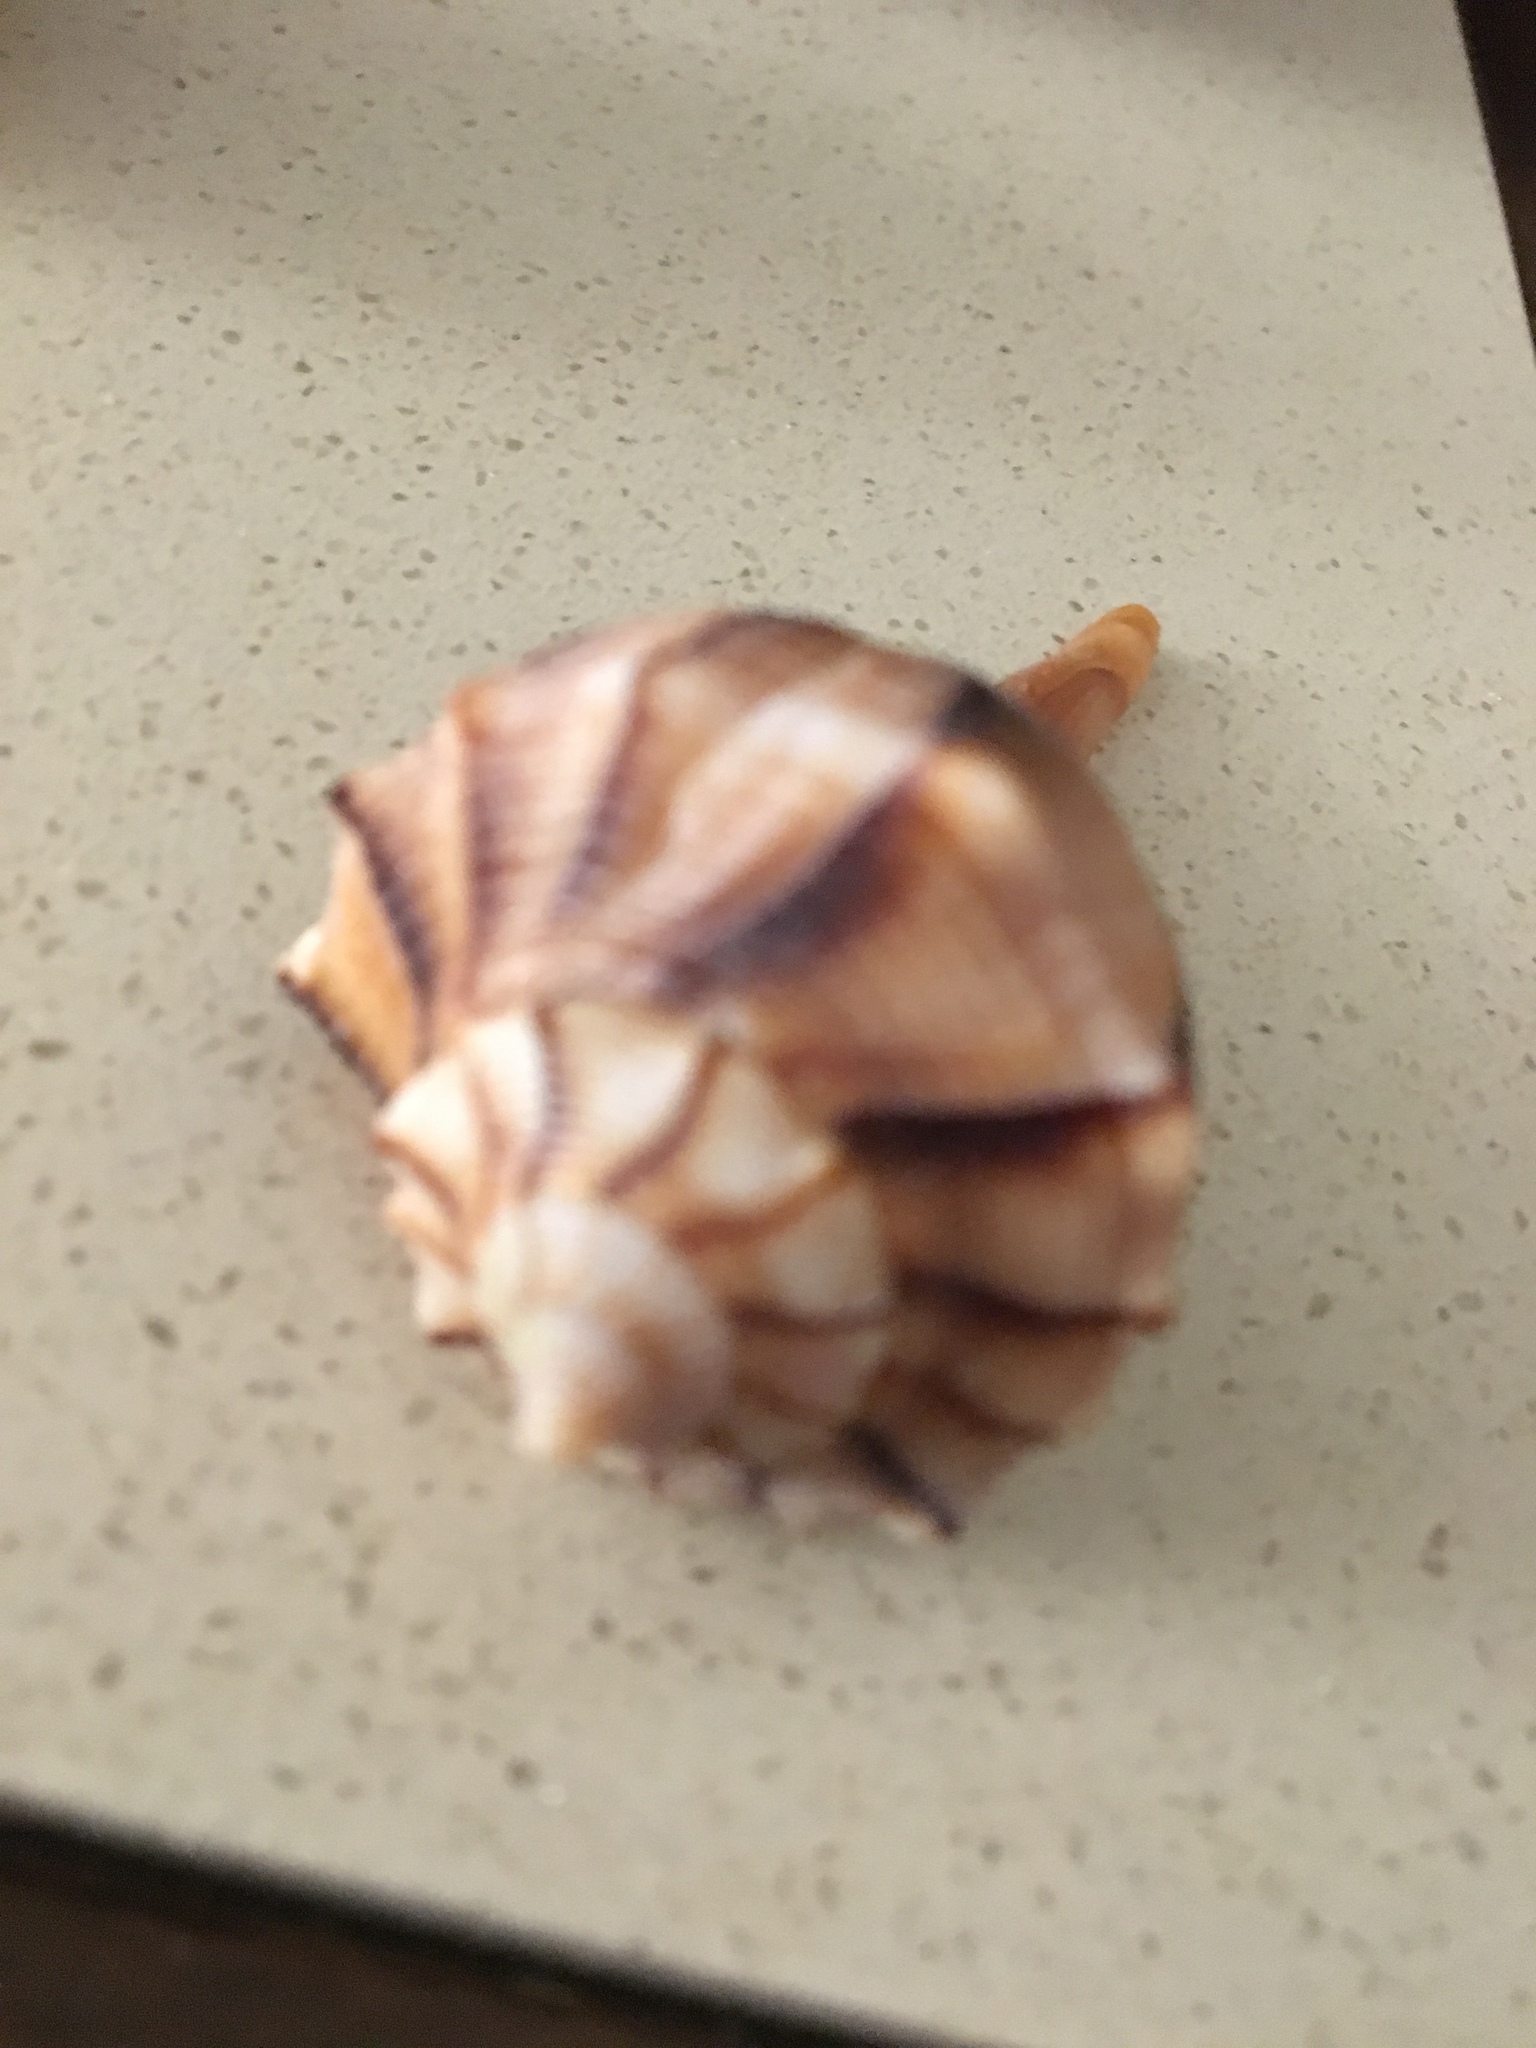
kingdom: Animalia
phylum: Mollusca
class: Gastropoda
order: Neogastropoda
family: Busyconidae
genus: Sinistrofulgur
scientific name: Sinistrofulgur sinistrum
